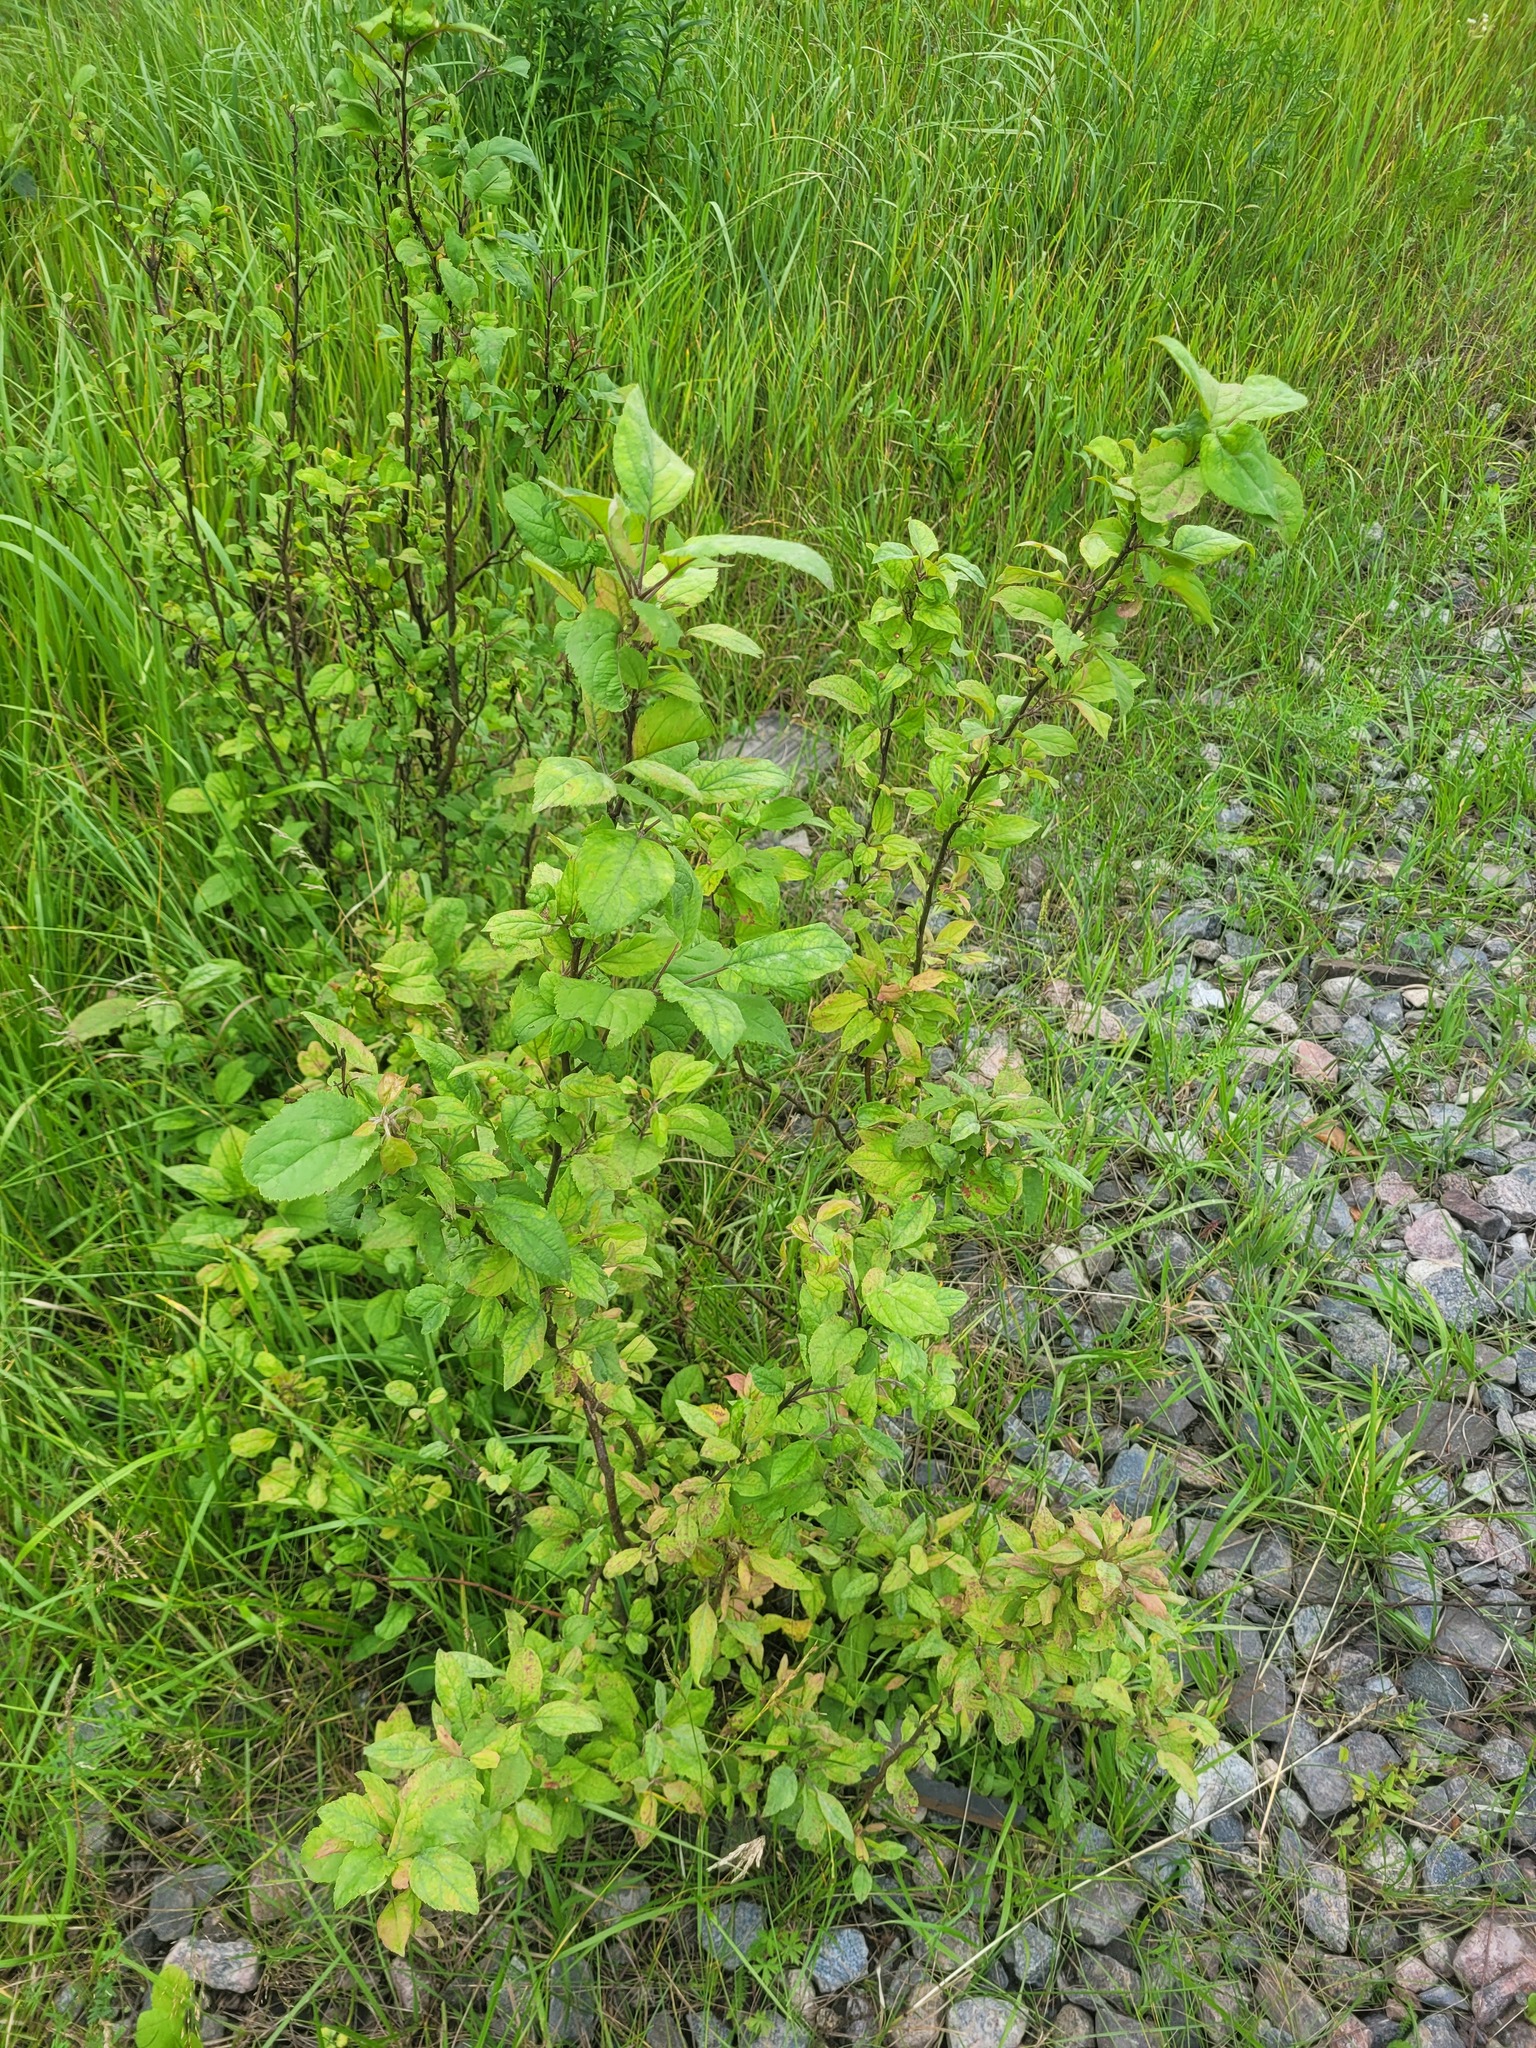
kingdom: Plantae
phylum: Tracheophyta
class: Magnoliopsida
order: Rosales
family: Rosaceae
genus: Malus
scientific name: Malus domestica
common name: Apple
